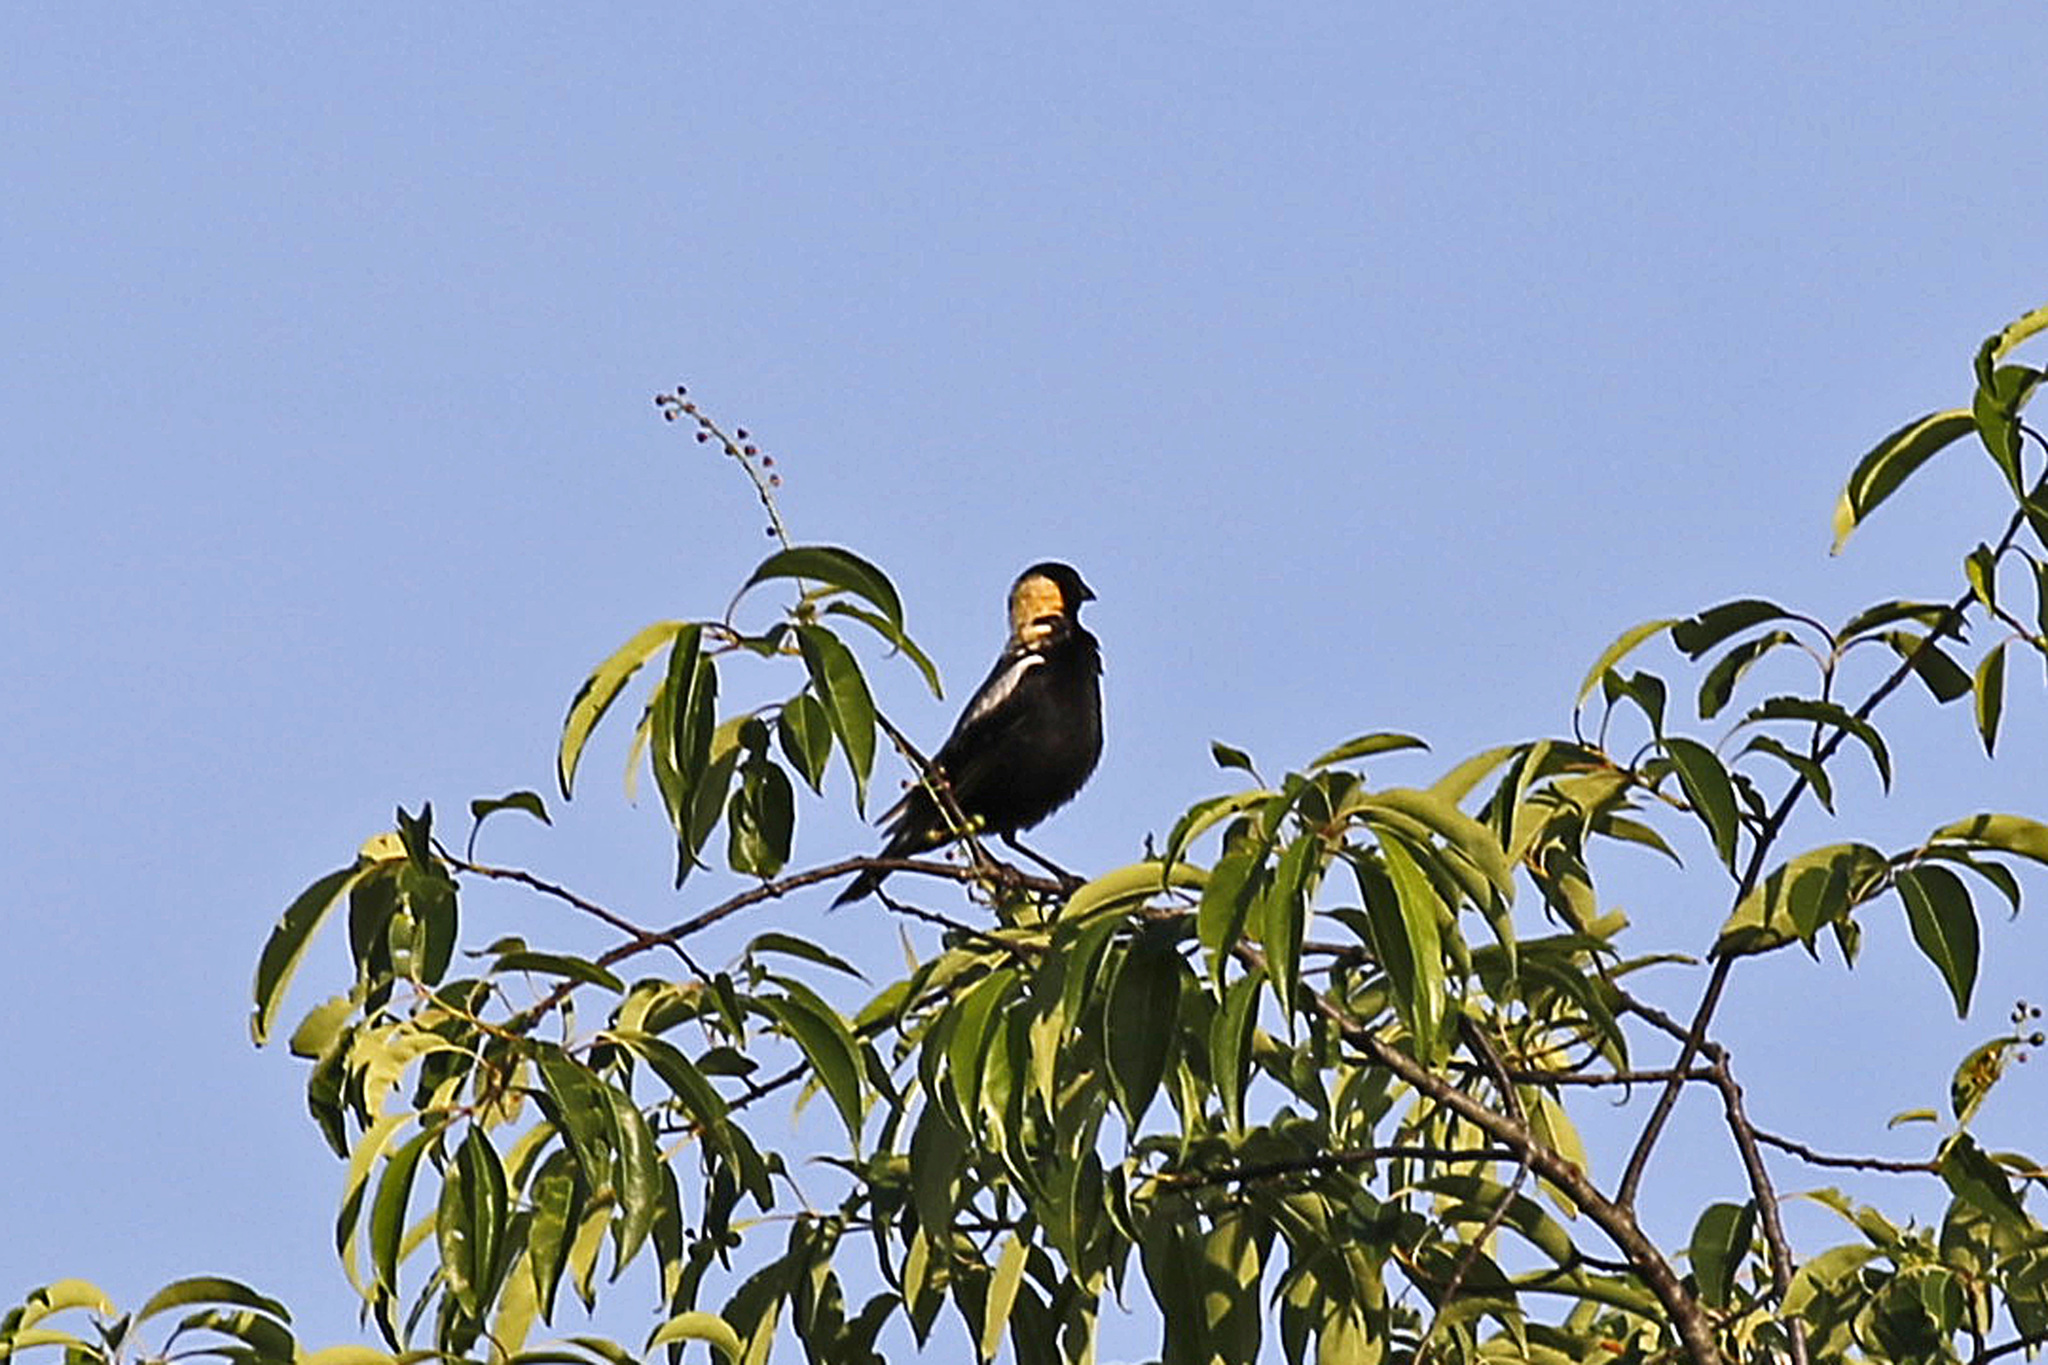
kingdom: Animalia
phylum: Chordata
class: Aves
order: Passeriformes
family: Icteridae
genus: Dolichonyx
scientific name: Dolichonyx oryzivorus
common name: Bobolink
